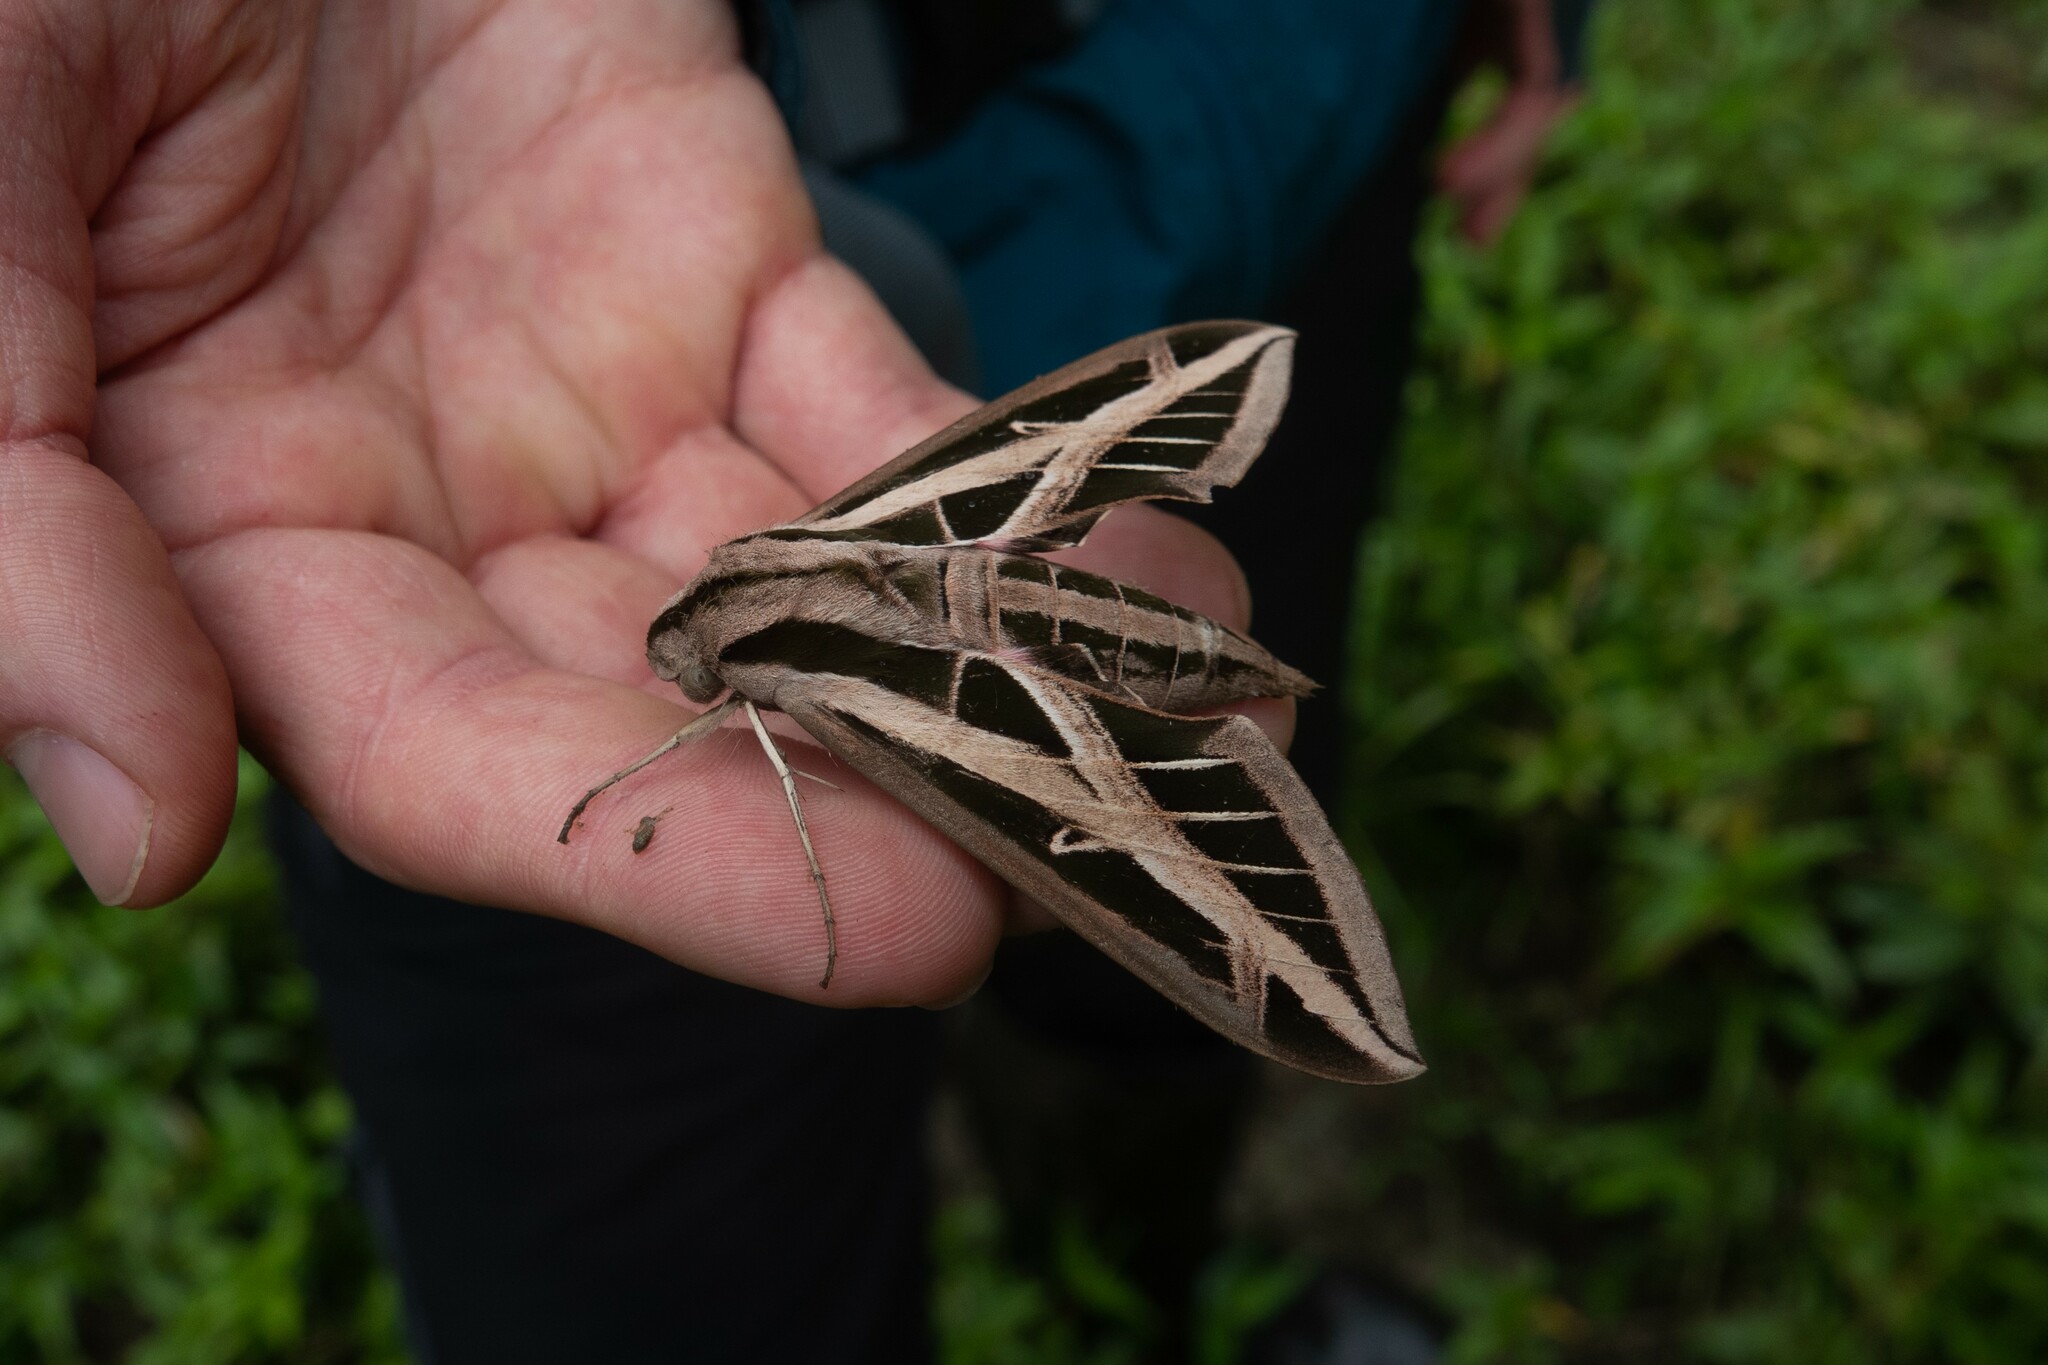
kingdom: Animalia
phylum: Arthropoda
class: Insecta
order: Lepidoptera
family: Sphingidae
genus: Eumorpha
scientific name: Eumorpha fasciatus
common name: Banded sphinx
